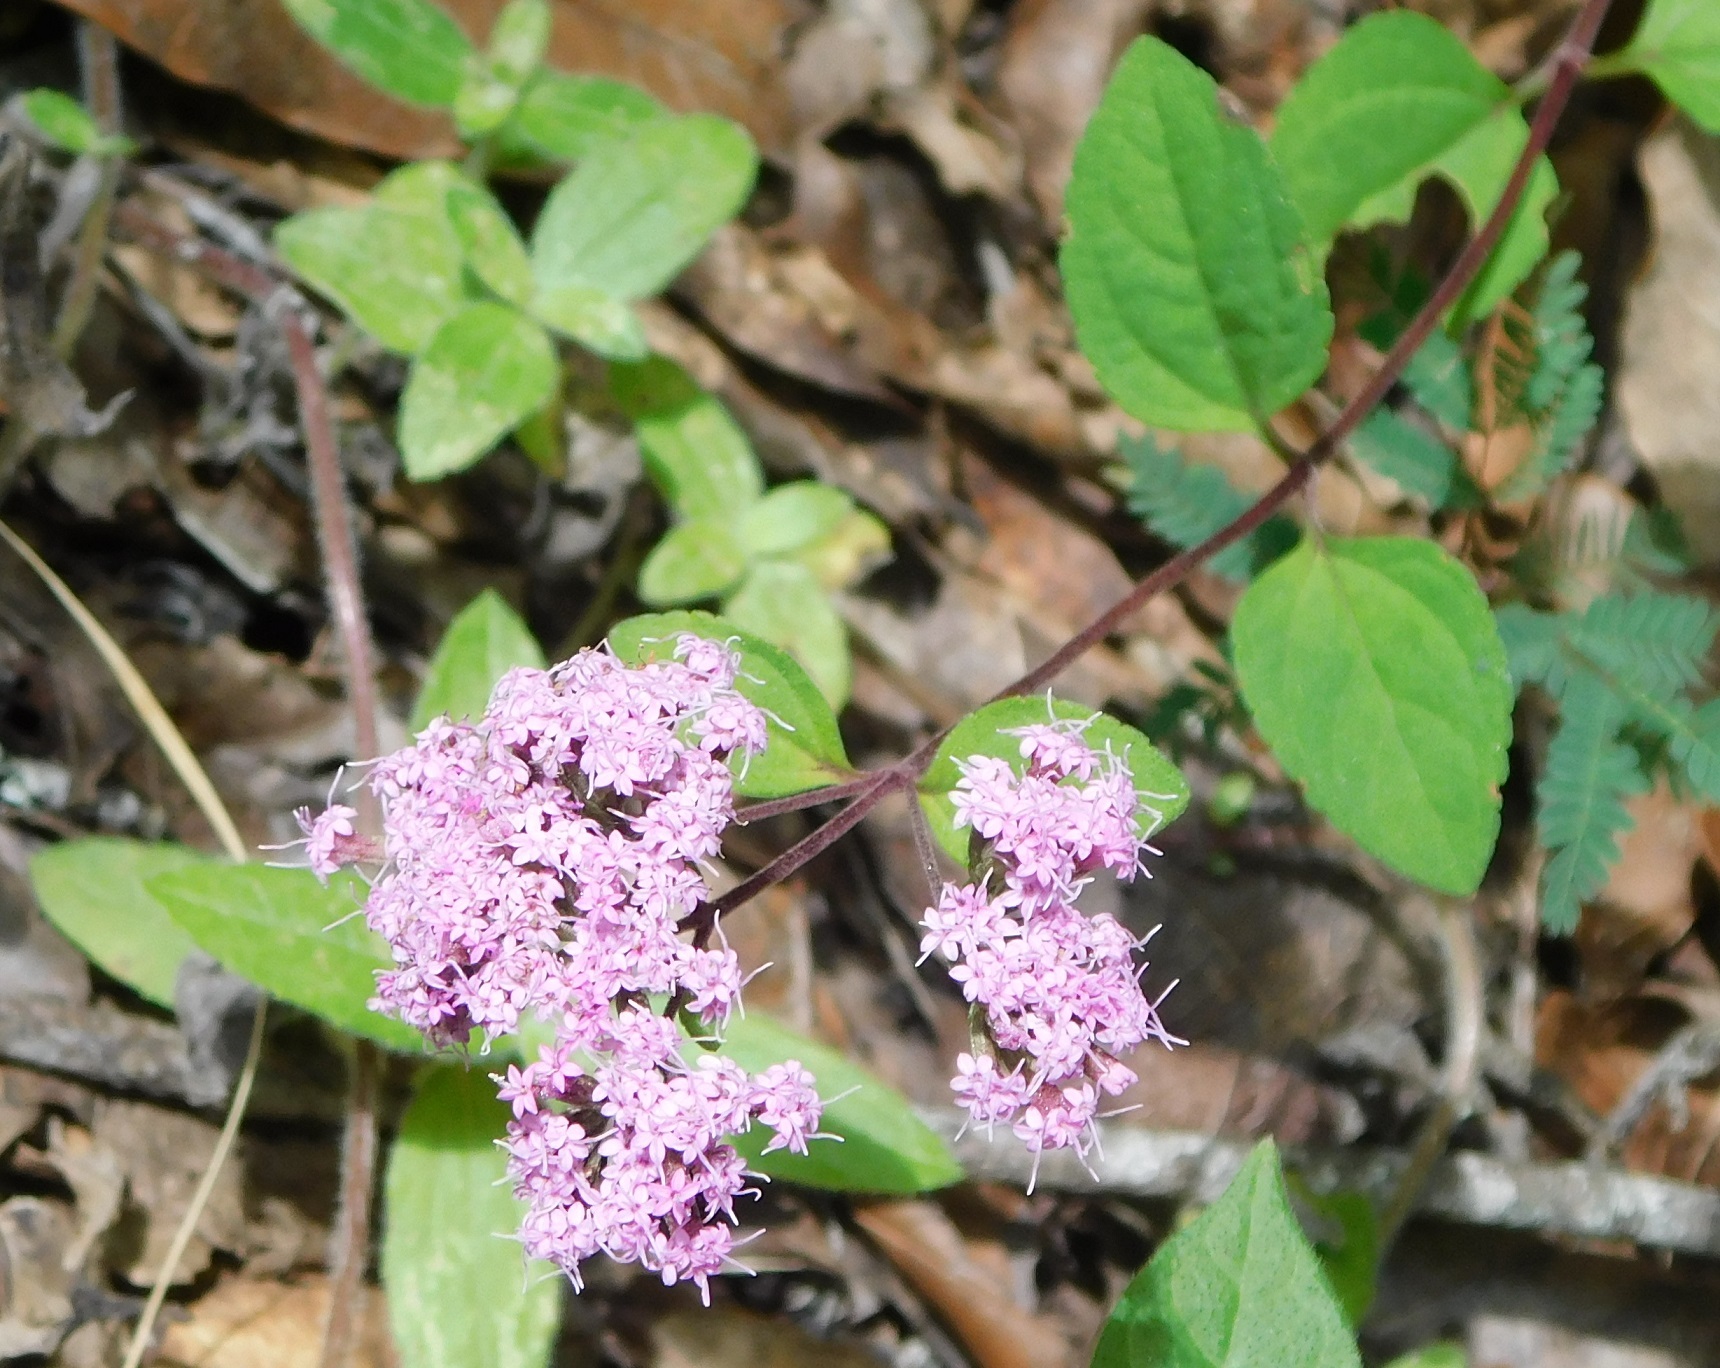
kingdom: Plantae
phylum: Tracheophyta
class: Magnoliopsida
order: Asterales
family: Asteraceae
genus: Stevia
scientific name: Stevia caracasana
